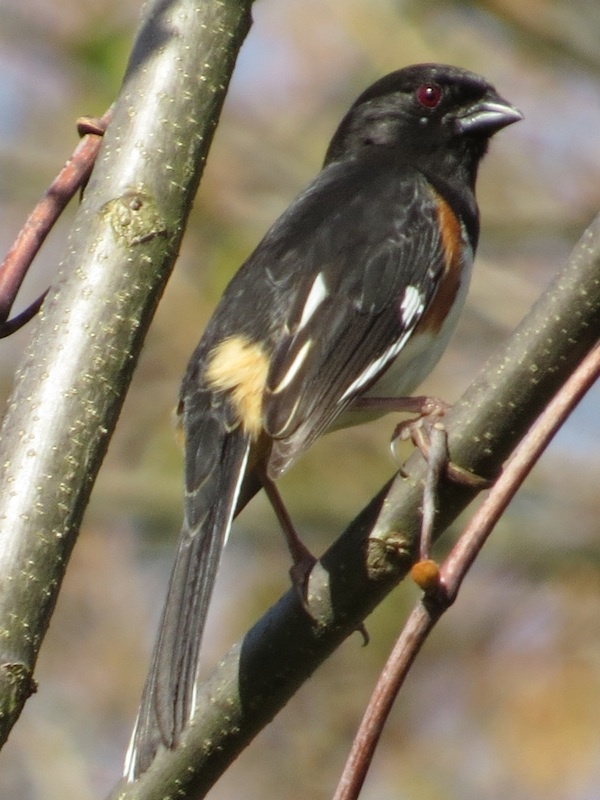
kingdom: Animalia
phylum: Chordata
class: Aves
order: Passeriformes
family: Passerellidae
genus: Pipilo
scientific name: Pipilo erythrophthalmus
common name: Eastern towhee
